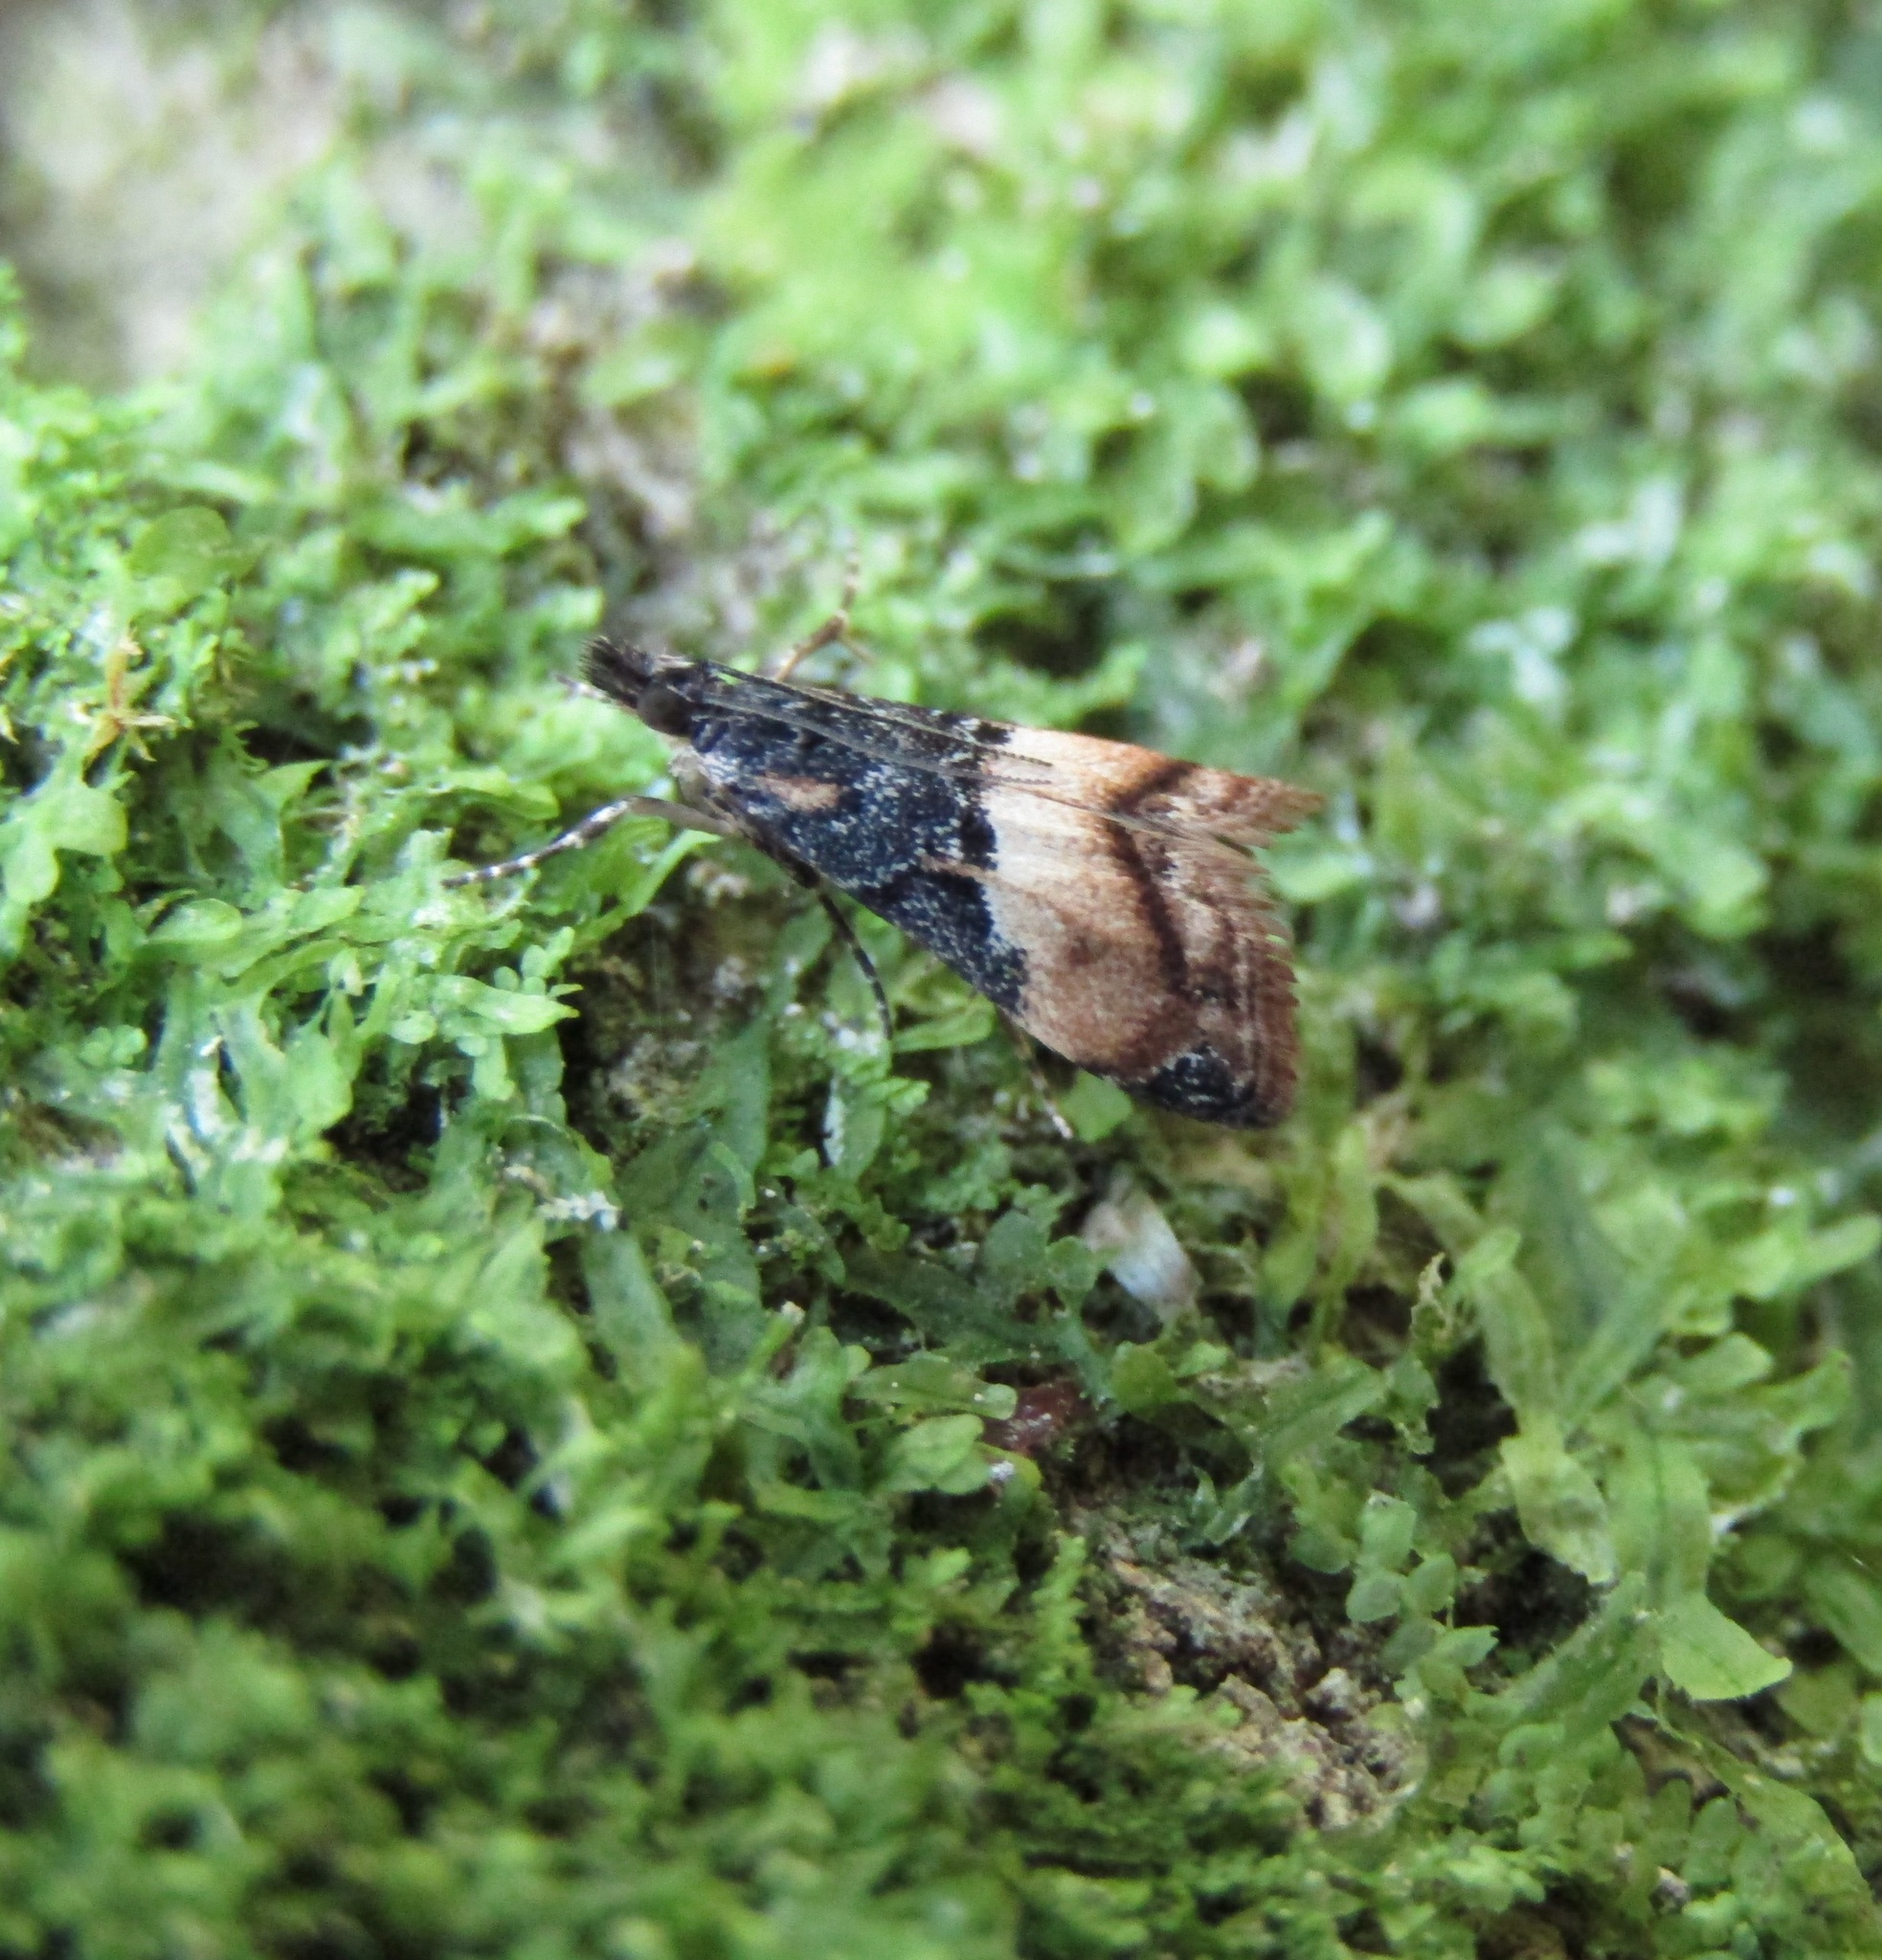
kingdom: Animalia
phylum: Arthropoda
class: Insecta
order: Lepidoptera
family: Crambidae
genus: Eudonia
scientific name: Eudonia chlamydota
